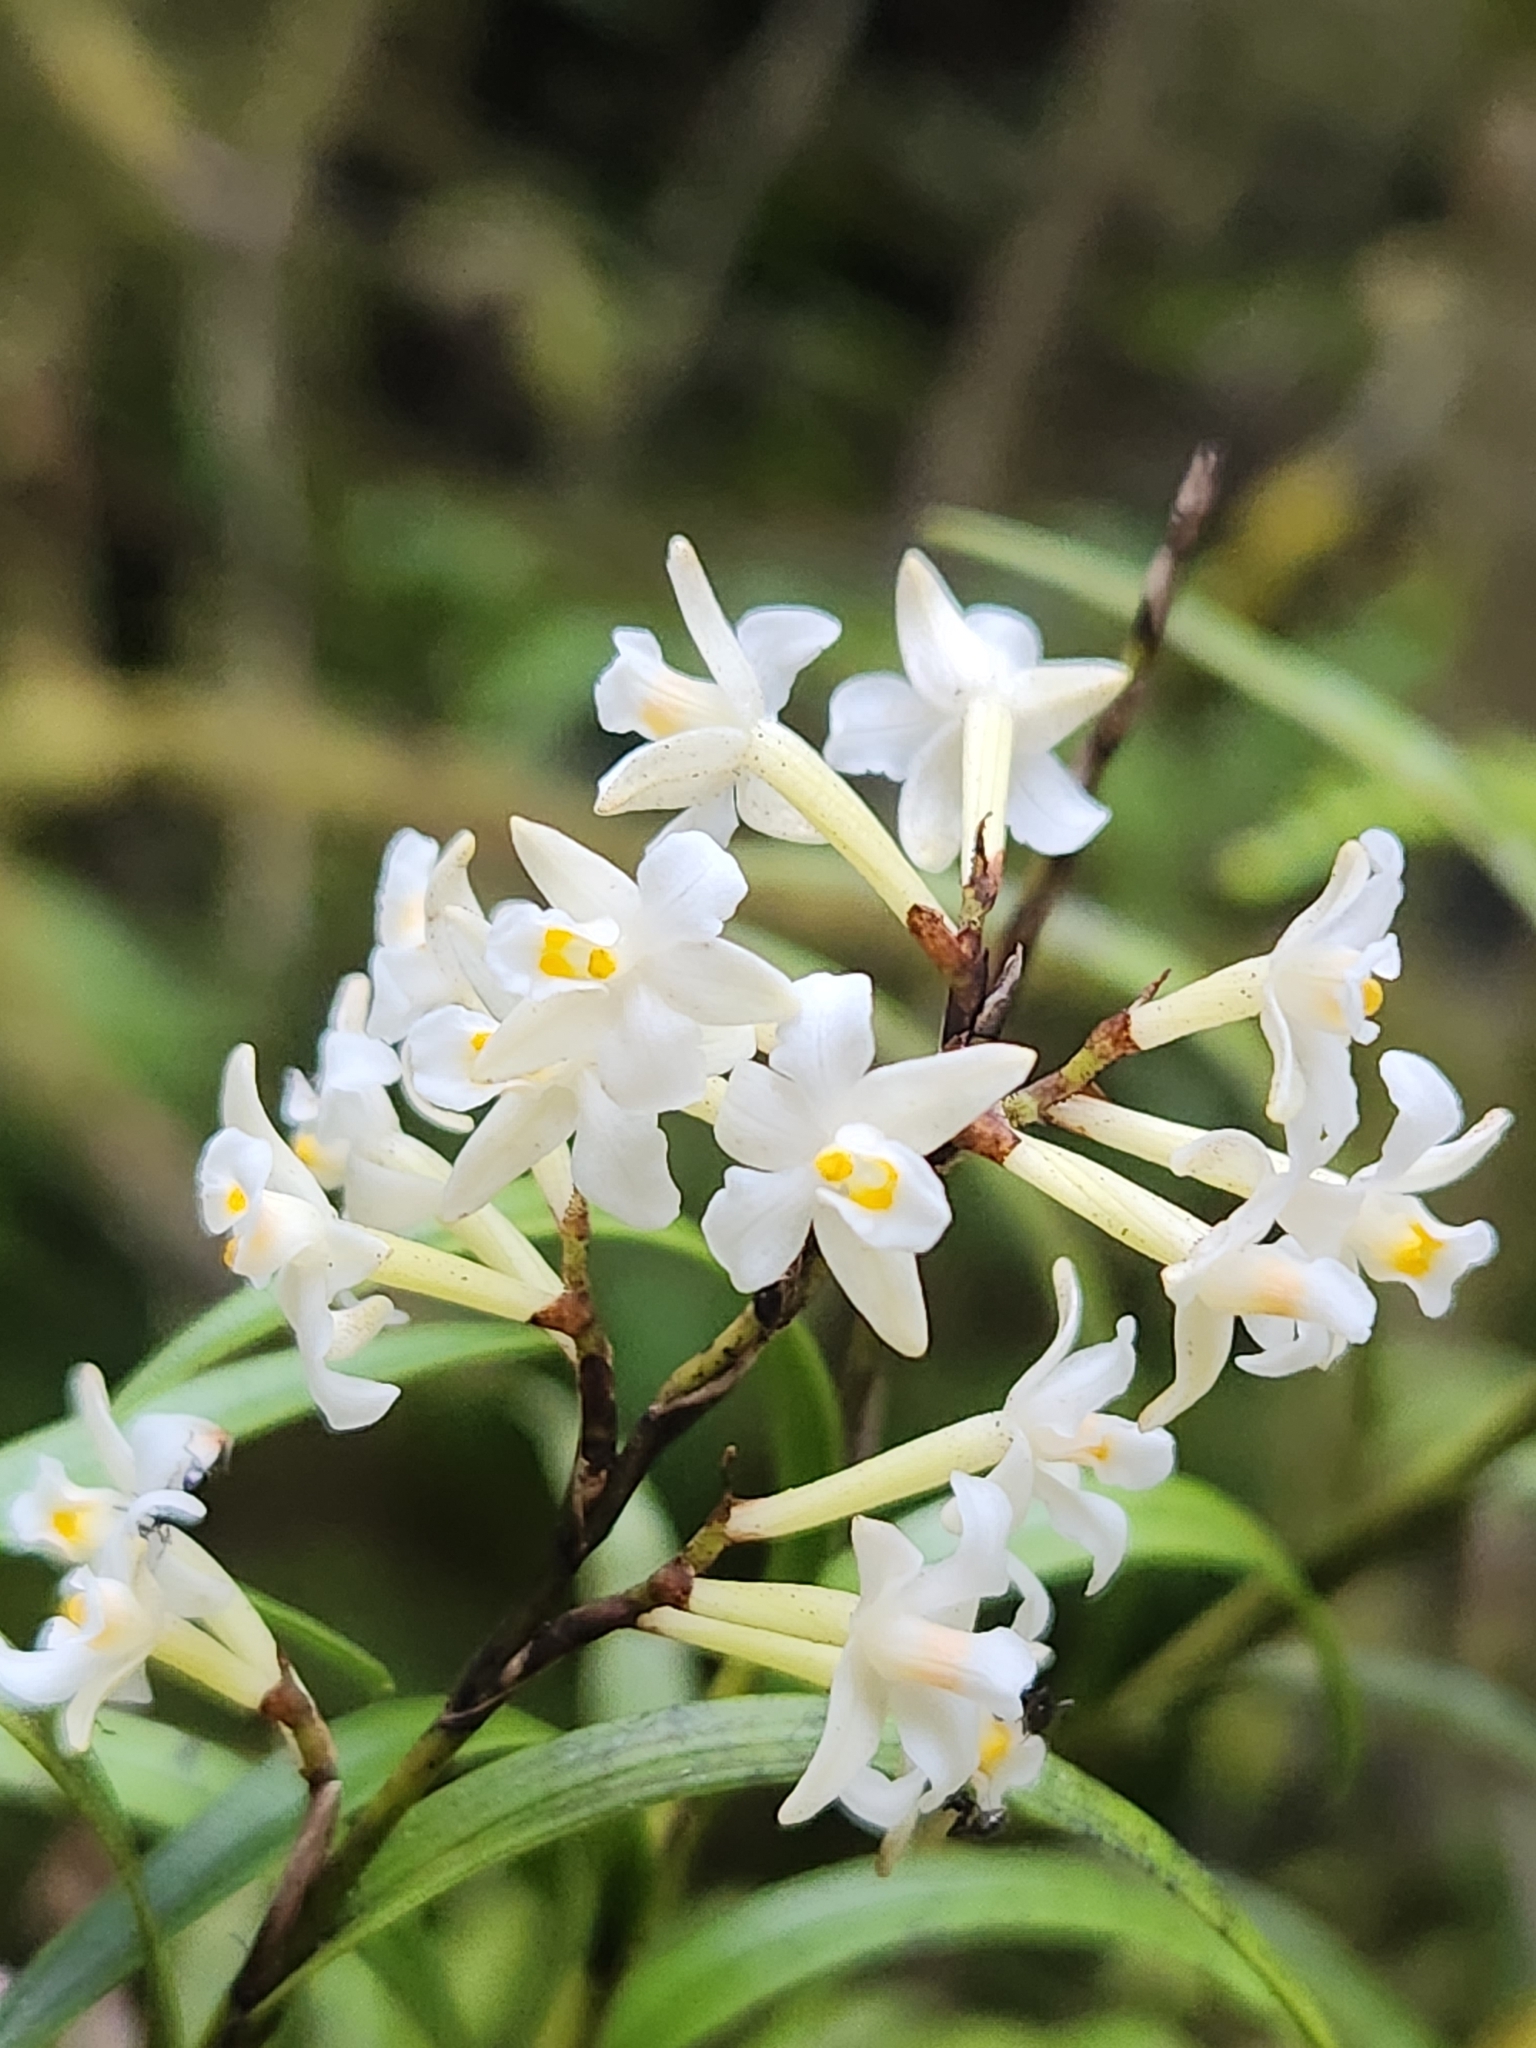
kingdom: Plantae
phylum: Tracheophyta
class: Liliopsida
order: Asparagales
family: Orchidaceae
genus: Earina
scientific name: Earina autumnalis
